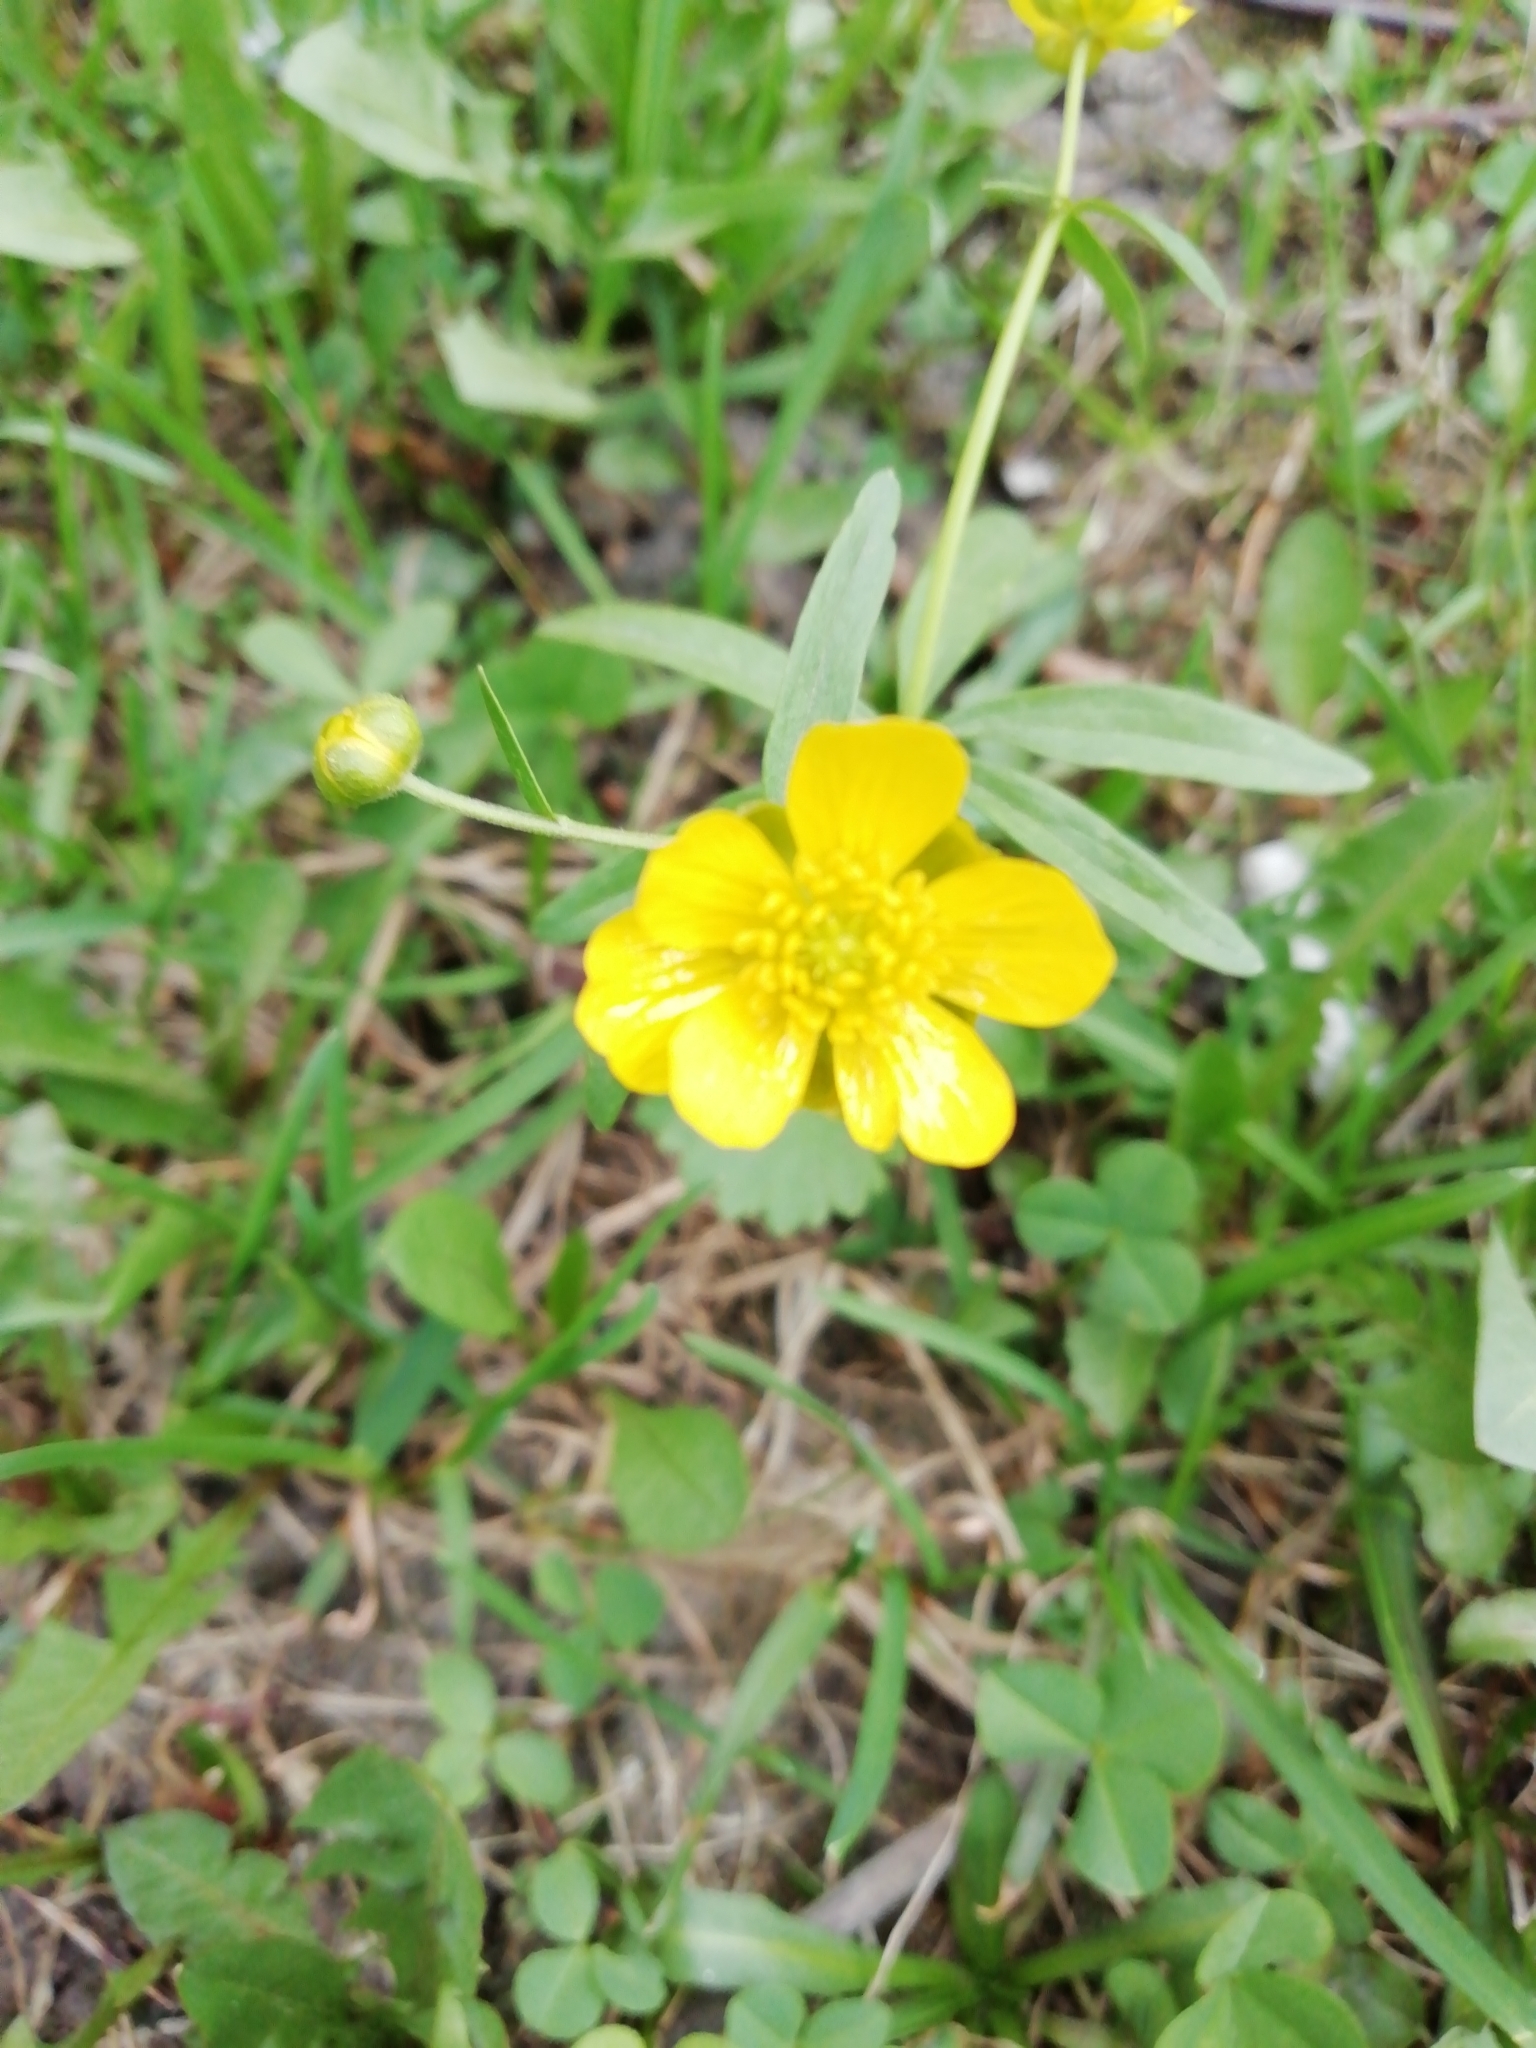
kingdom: Plantae
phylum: Tracheophyta
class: Magnoliopsida
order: Ranunculales
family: Ranunculaceae
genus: Ranunculus
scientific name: Ranunculus monophyllus
